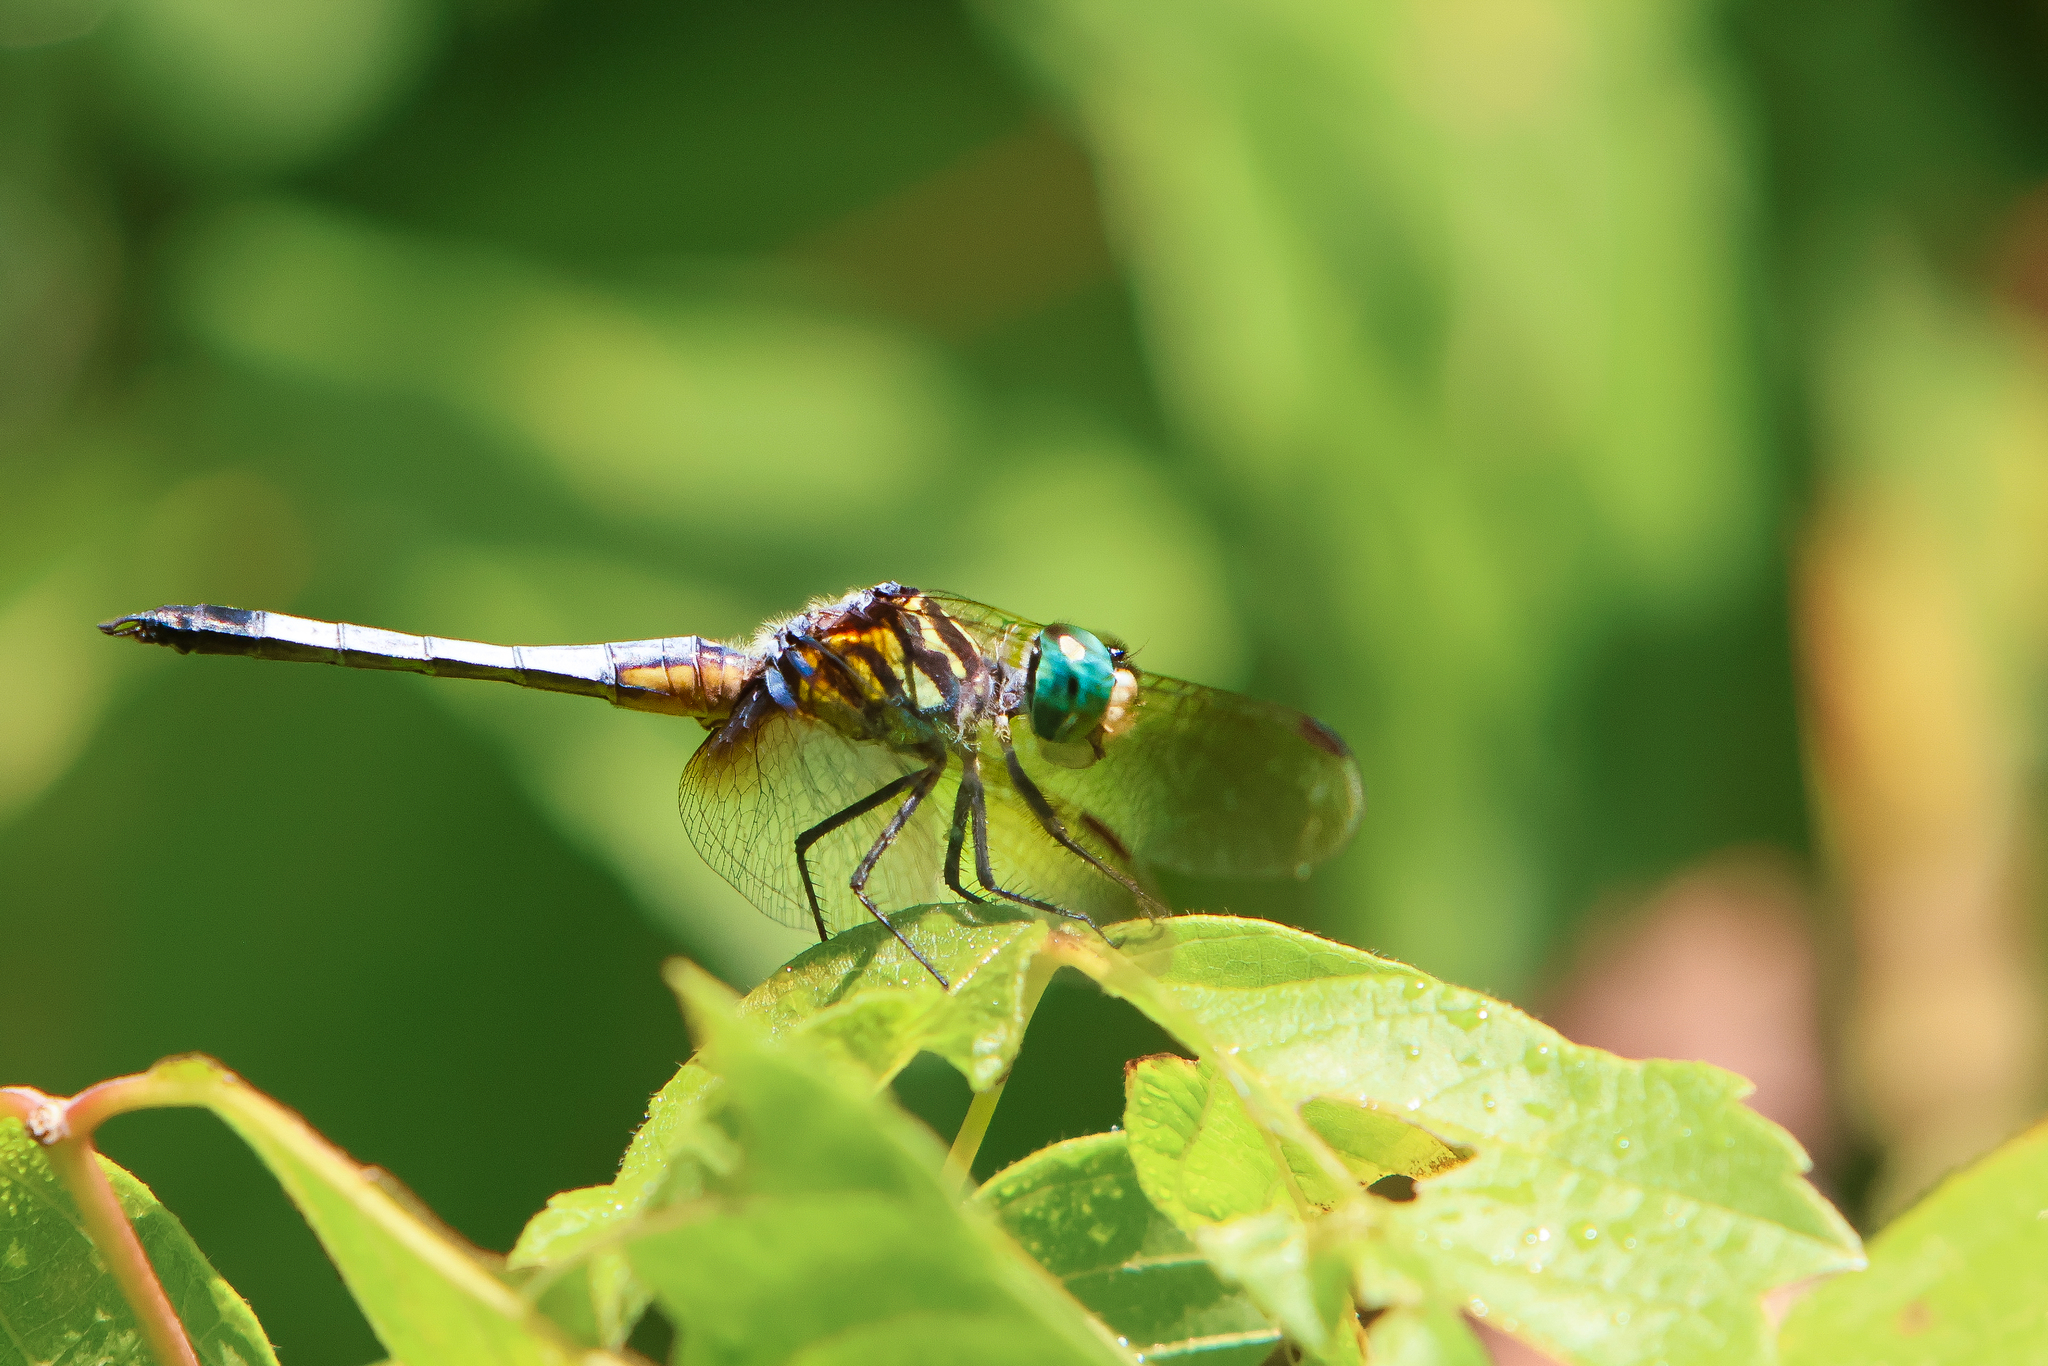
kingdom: Animalia
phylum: Arthropoda
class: Insecta
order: Odonata
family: Libellulidae
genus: Pachydiplax
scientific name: Pachydiplax longipennis
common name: Blue dasher
